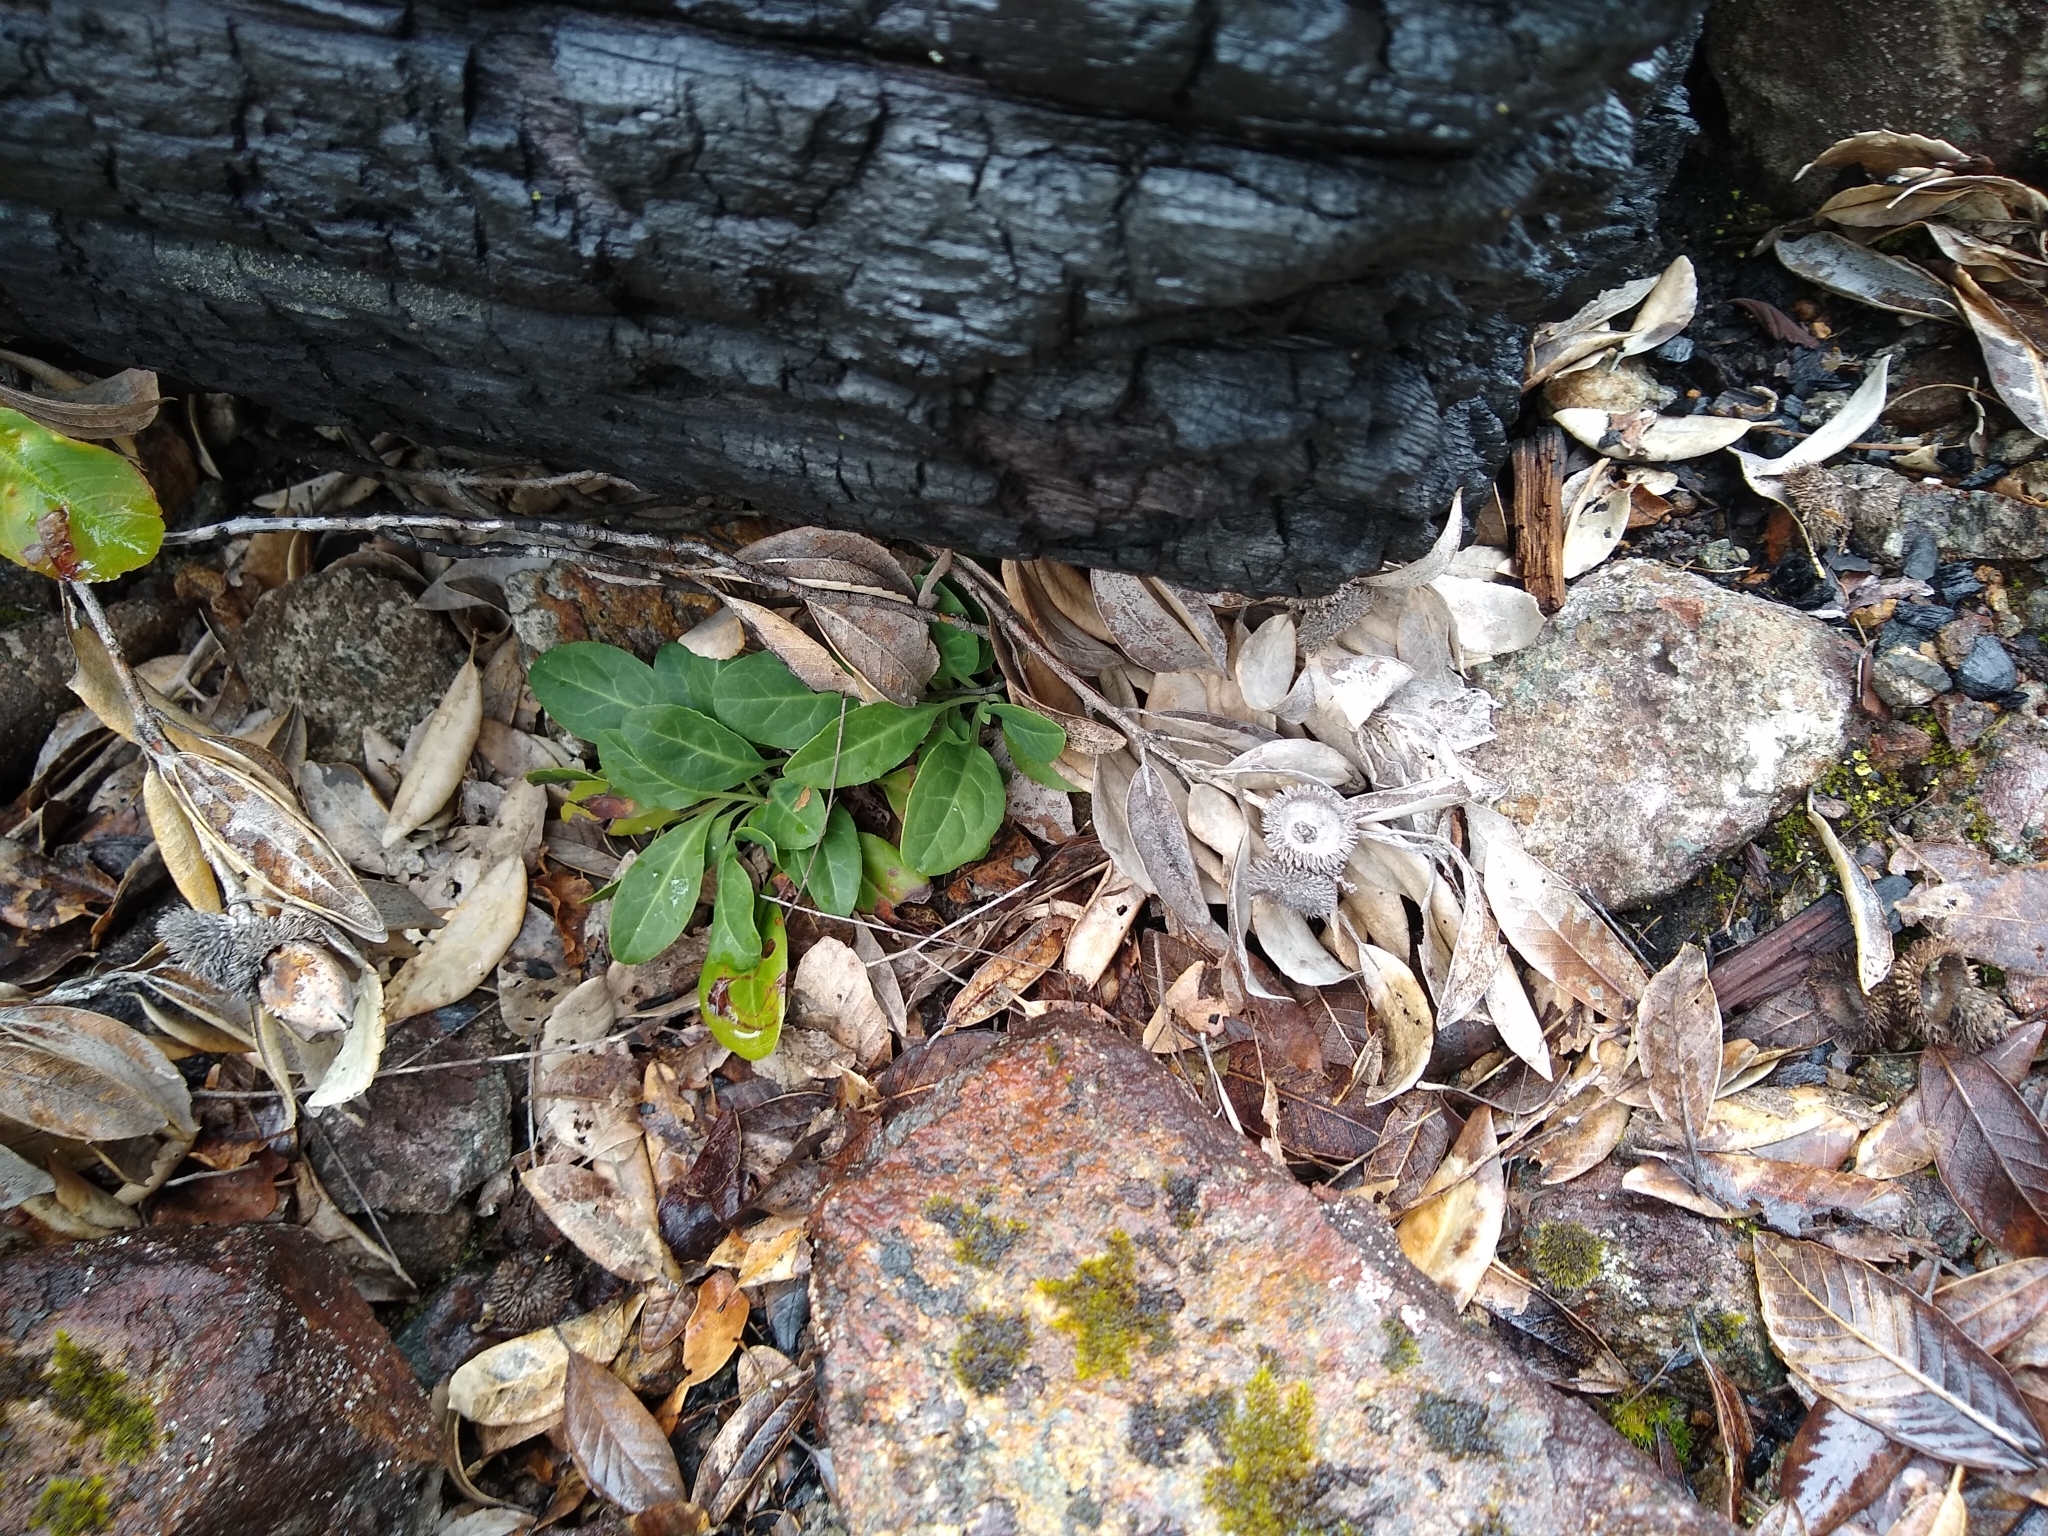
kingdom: Plantae
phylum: Tracheophyta
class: Magnoliopsida
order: Ericales
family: Ericaceae
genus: Pyrola
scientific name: Pyrola dentata
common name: Tooth-leaved wintergreen
